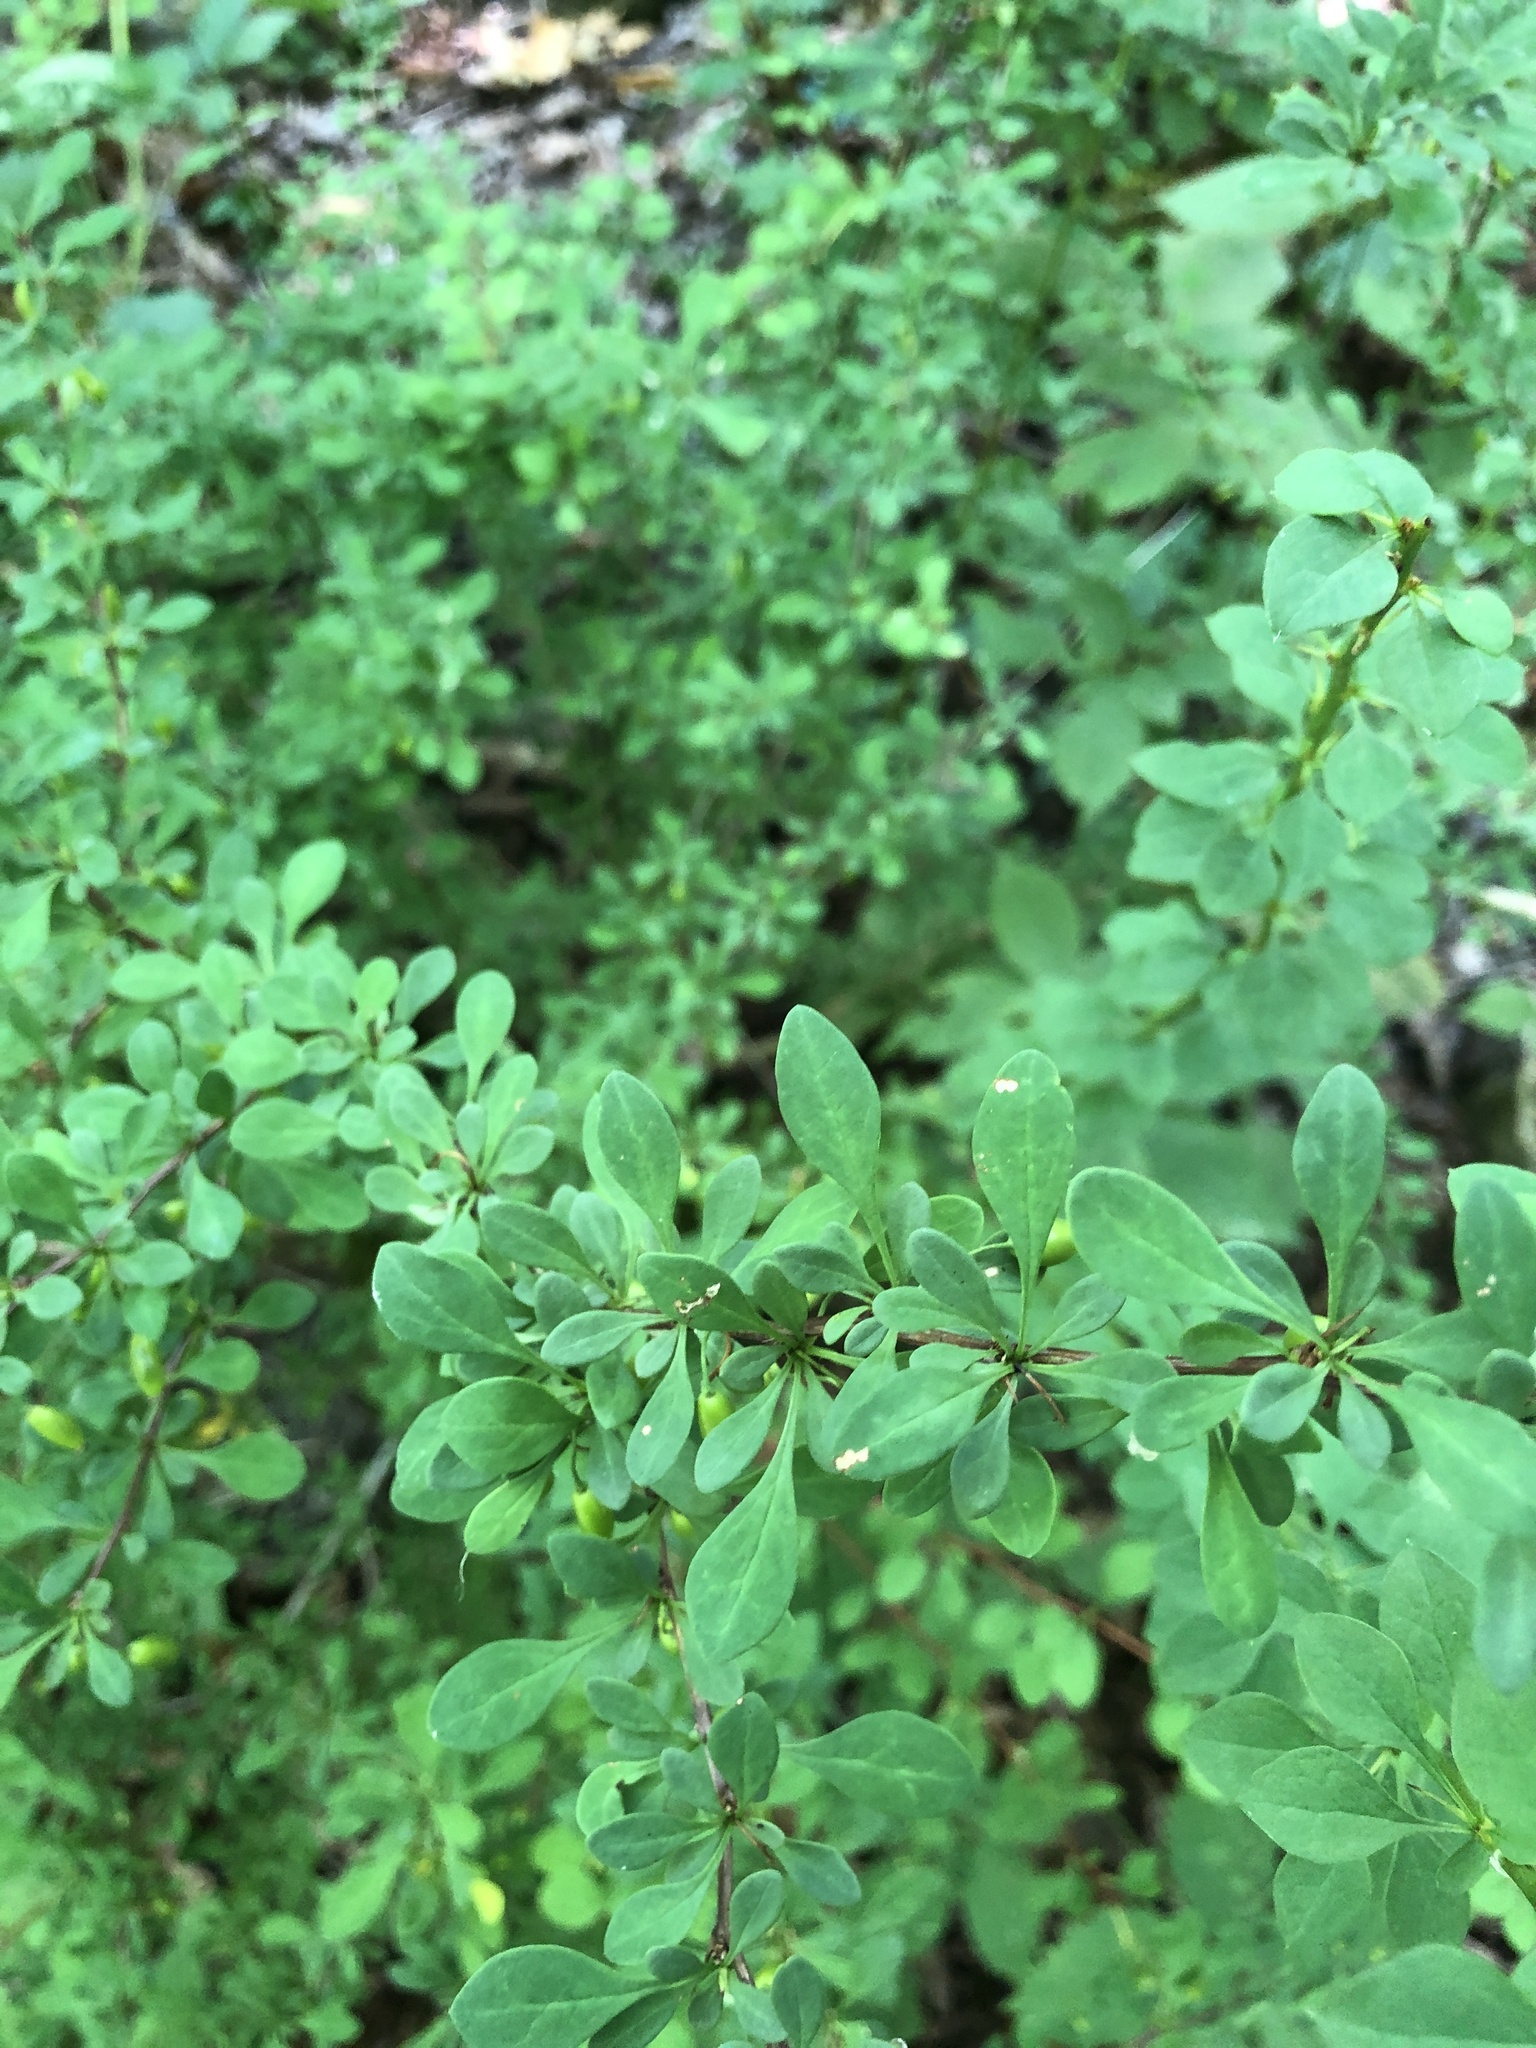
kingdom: Plantae
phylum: Tracheophyta
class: Magnoliopsida
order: Ranunculales
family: Berberidaceae
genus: Berberis
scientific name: Berberis thunbergii
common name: Japanese barberry
